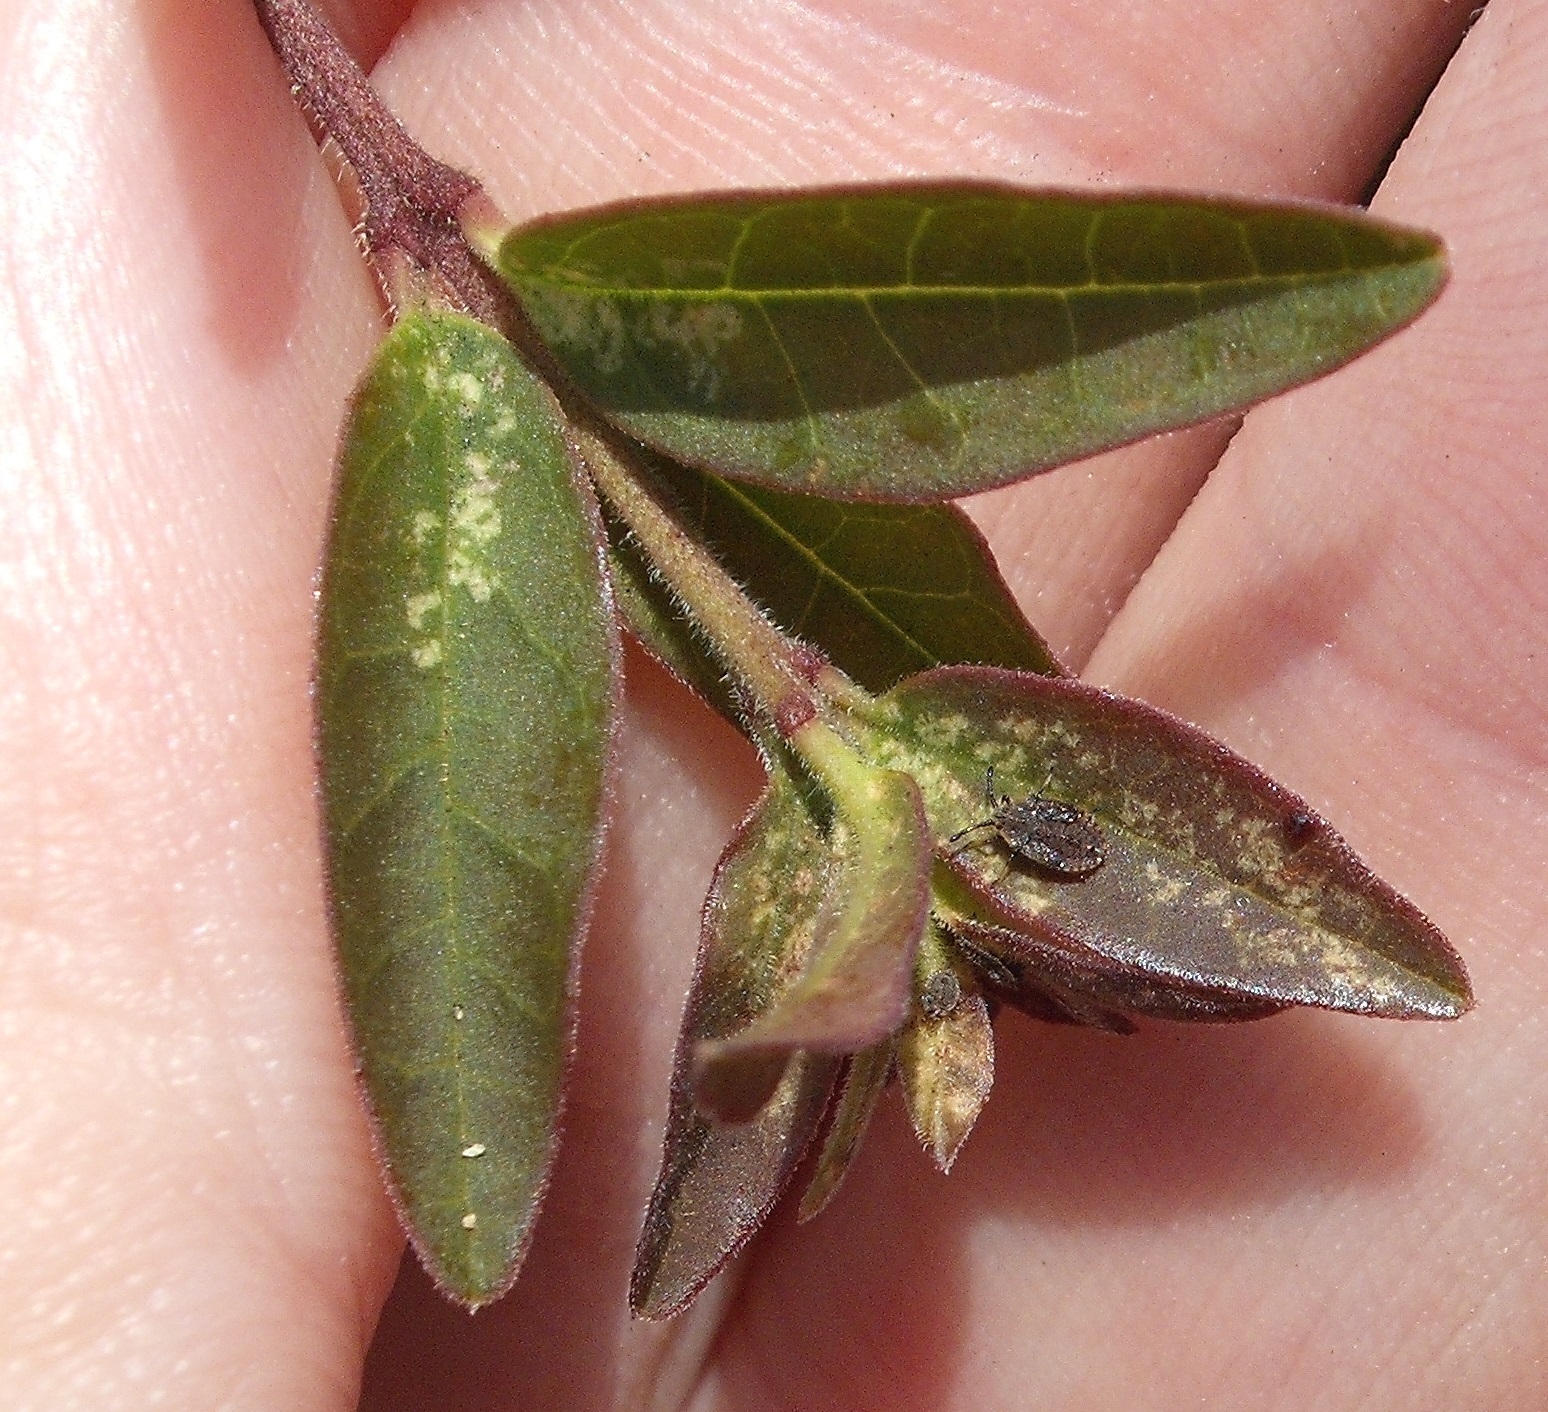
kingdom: Animalia
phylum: Arthropoda
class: Insecta
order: Hemiptera
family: Tingidae
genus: Leptoypha
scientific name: Leptoypha hospita
